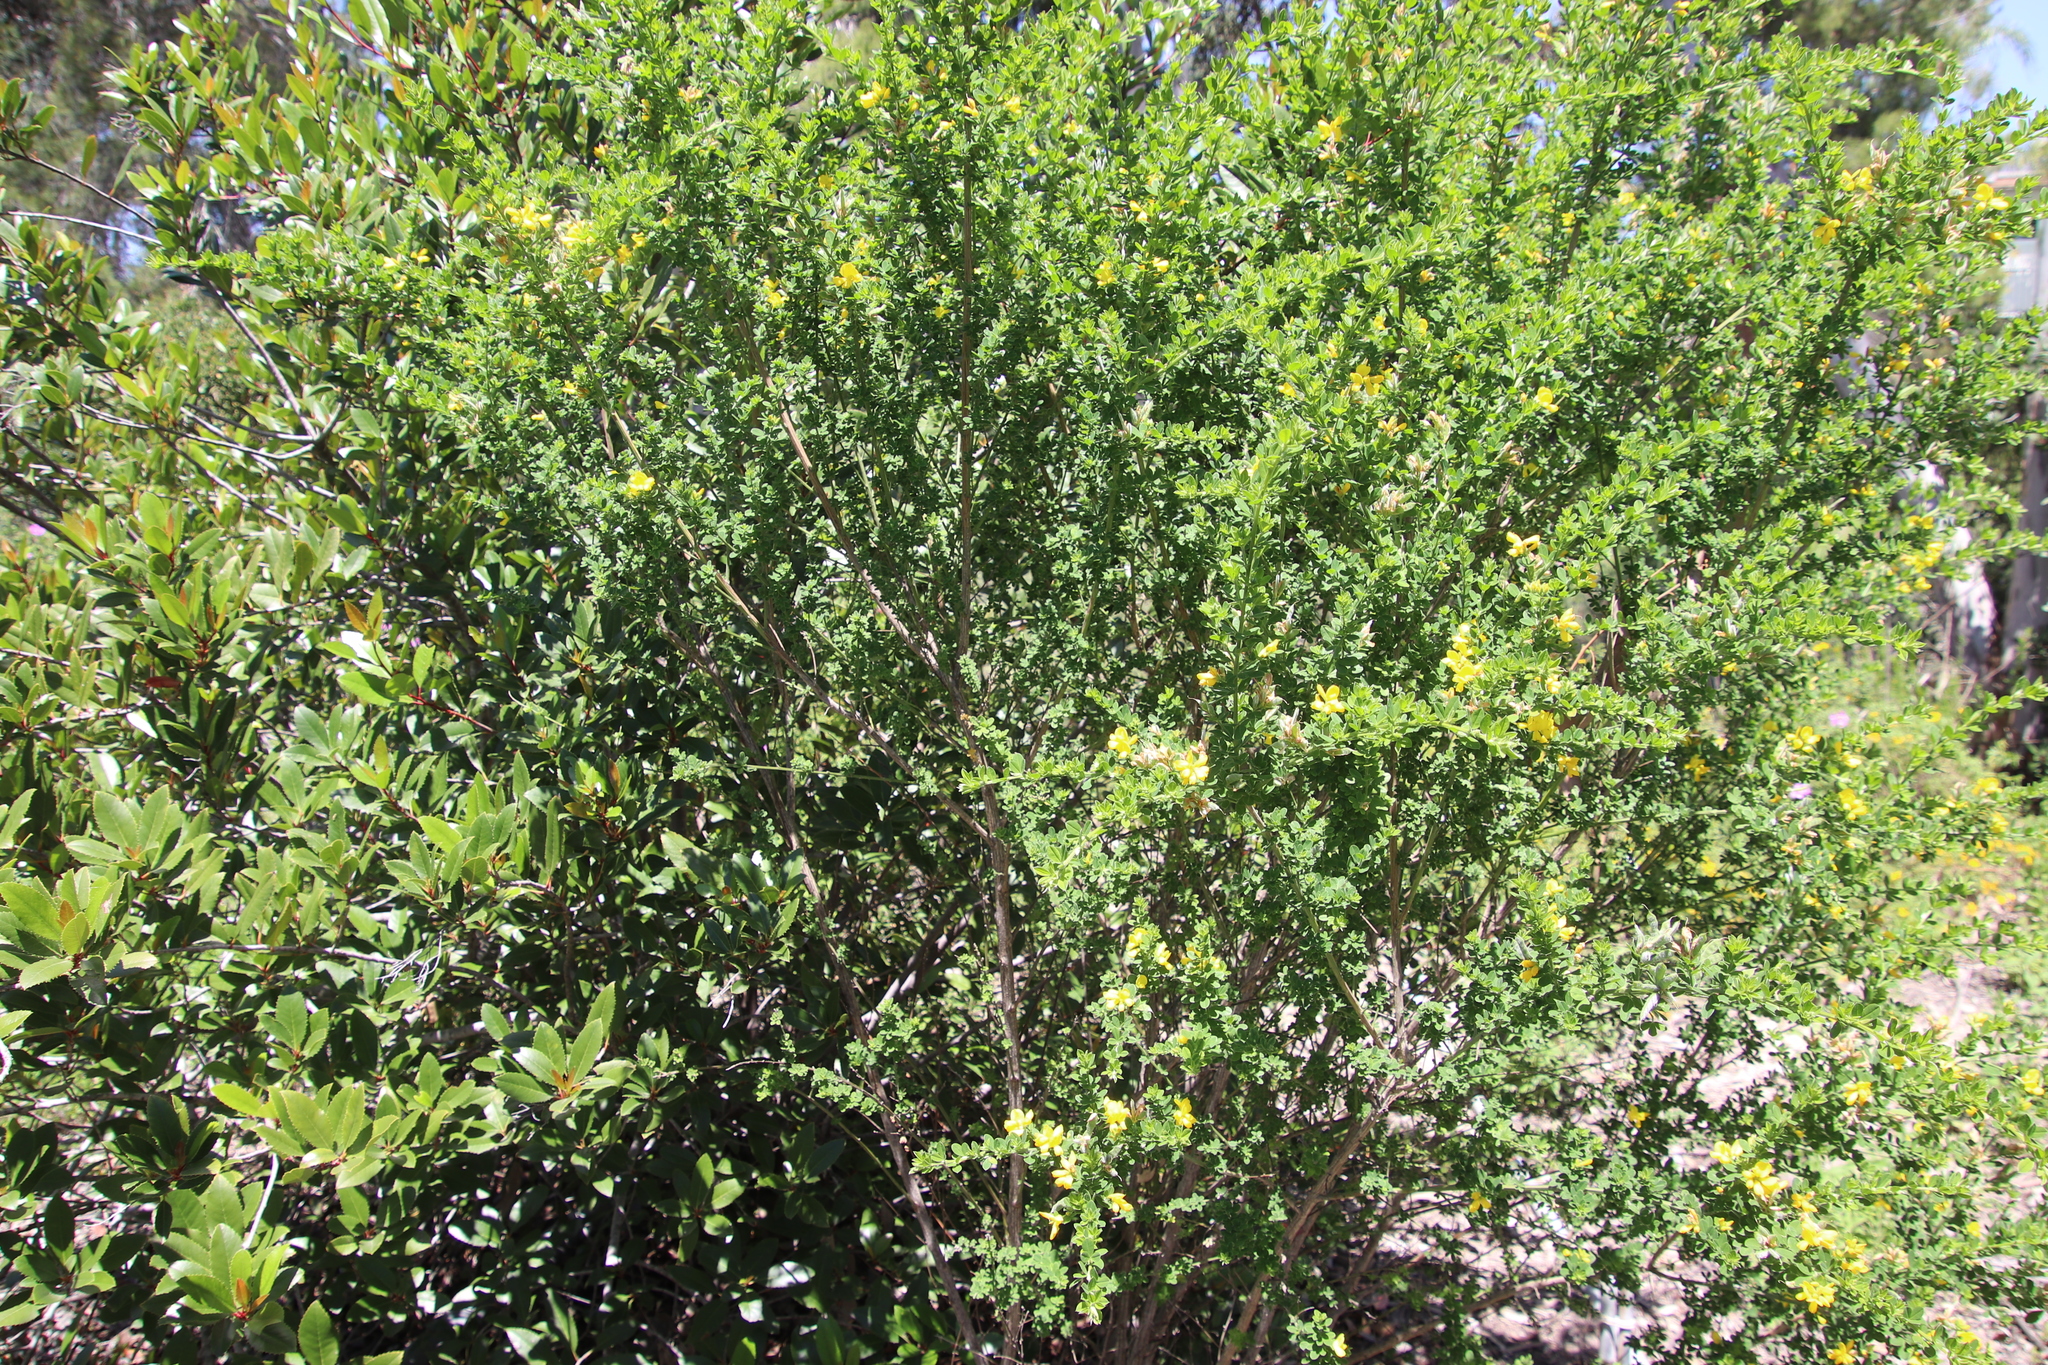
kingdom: Plantae
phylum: Tracheophyta
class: Magnoliopsida
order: Fabales
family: Fabaceae
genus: Genista
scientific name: Genista monspessulana
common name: Montpellier broom
